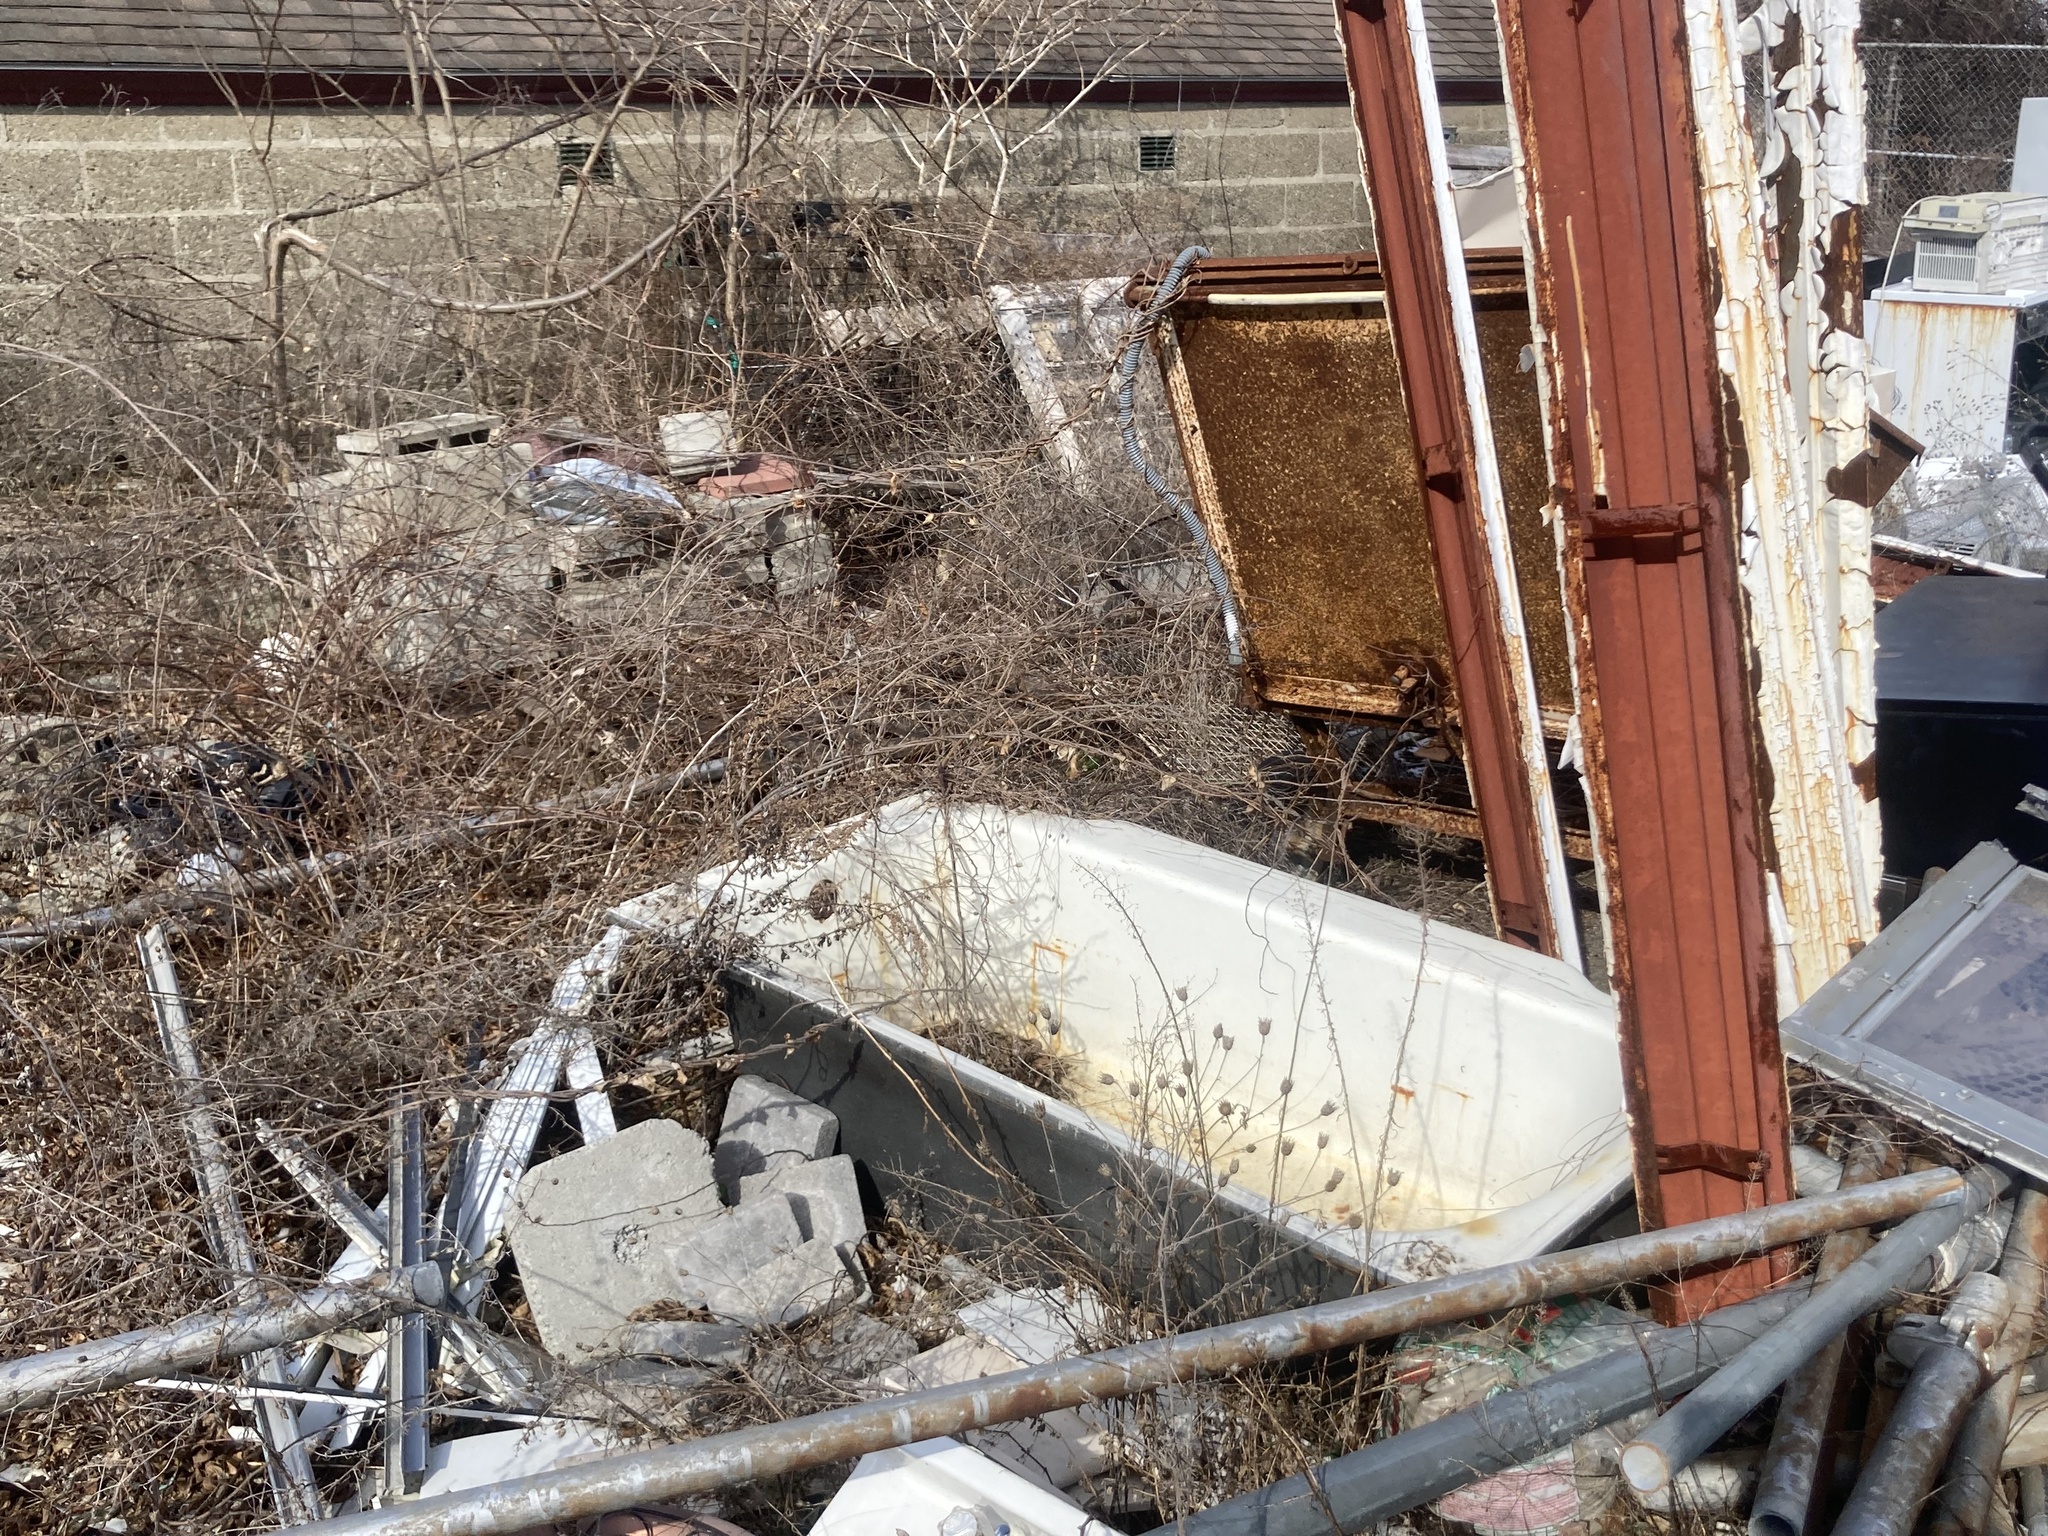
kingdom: Plantae
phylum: Tracheophyta
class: Magnoliopsida
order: Asterales
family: Asteraceae
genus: Centaurea
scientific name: Centaurea stoebe
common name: Spotted knapweed
